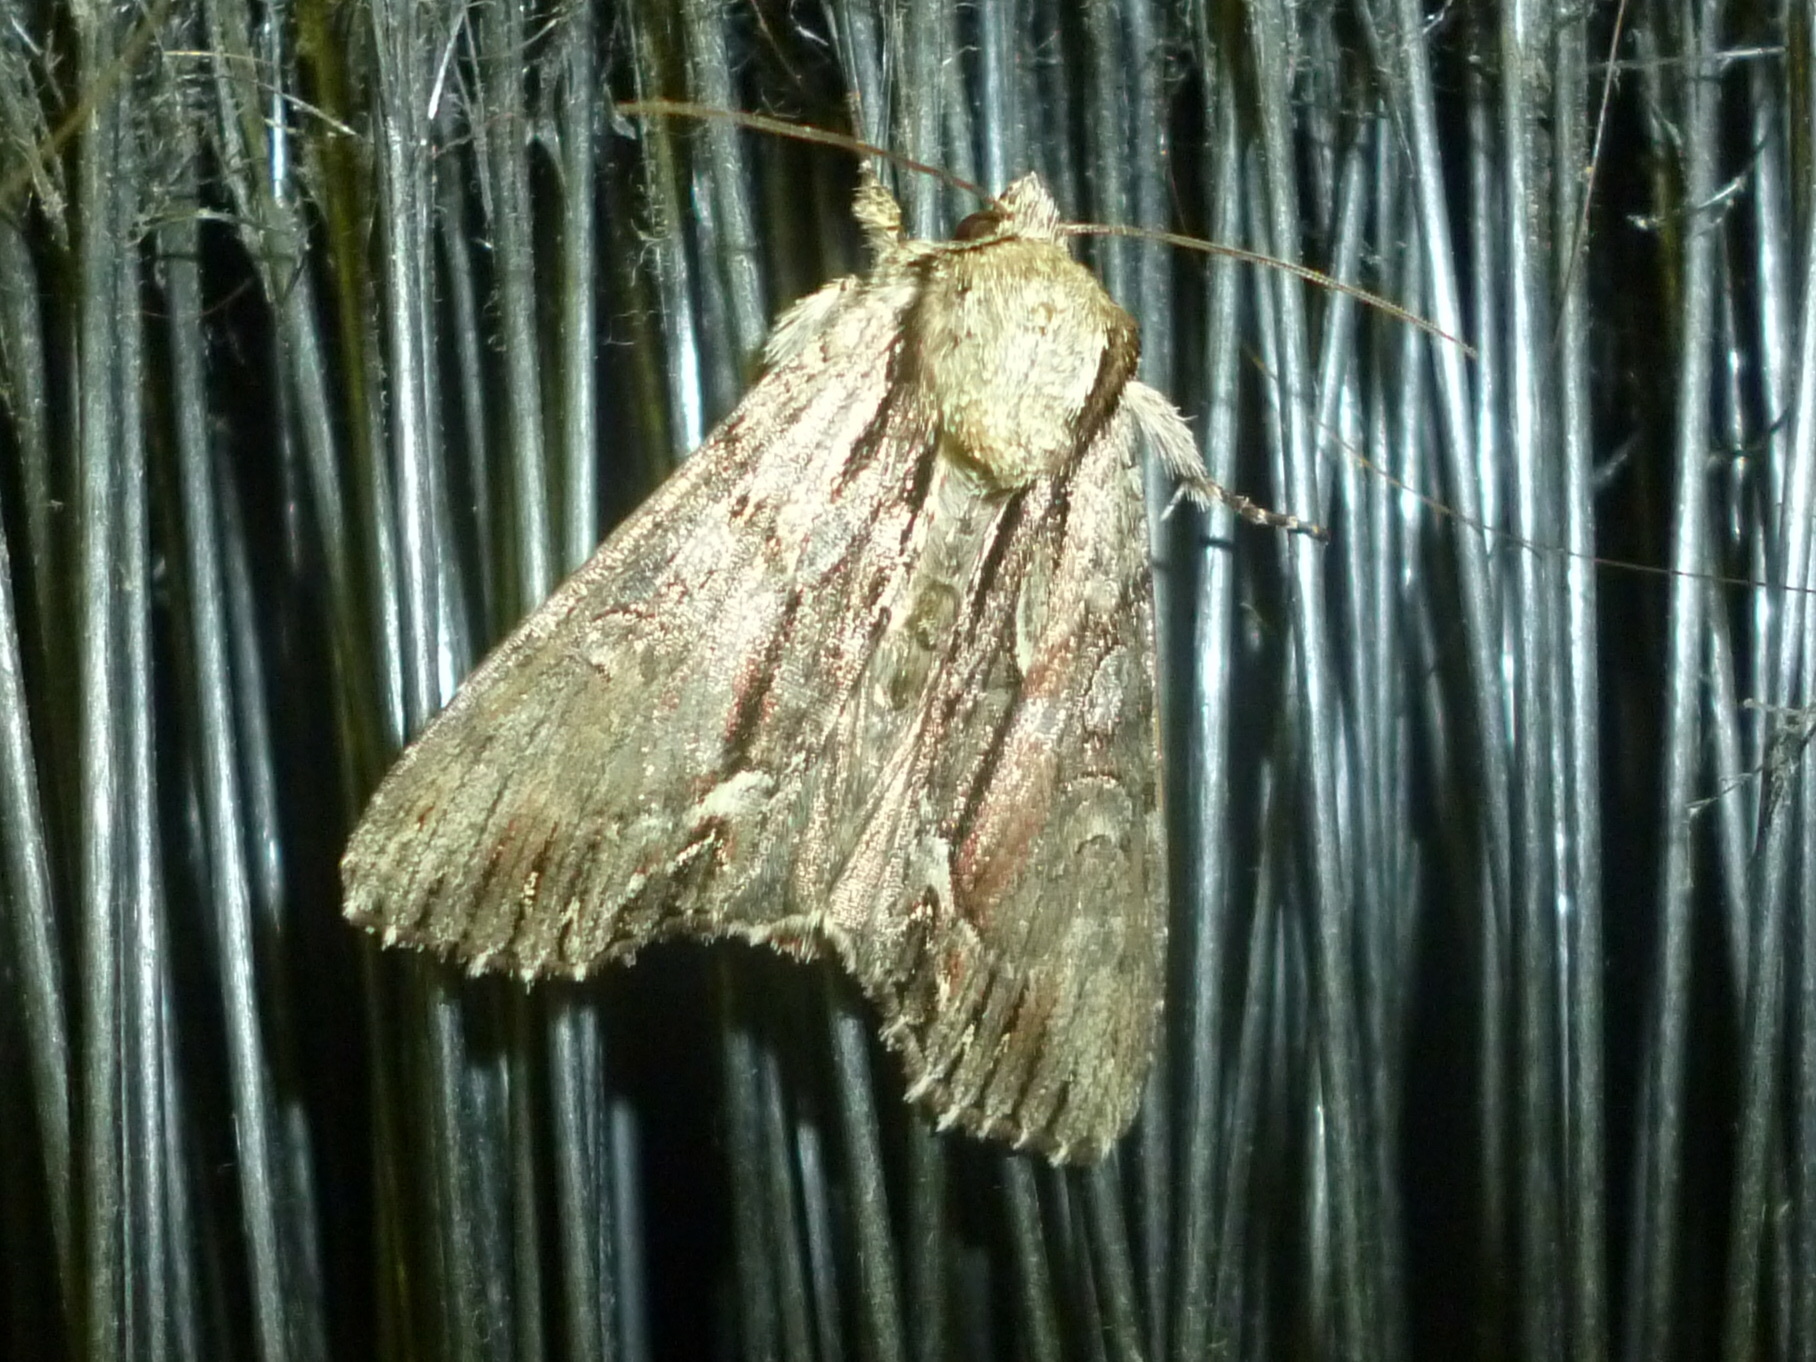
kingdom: Animalia
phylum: Arthropoda
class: Insecta
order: Lepidoptera
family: Noctuidae
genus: Hyppa
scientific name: Hyppa xylinoides
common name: Common hyppa moth
